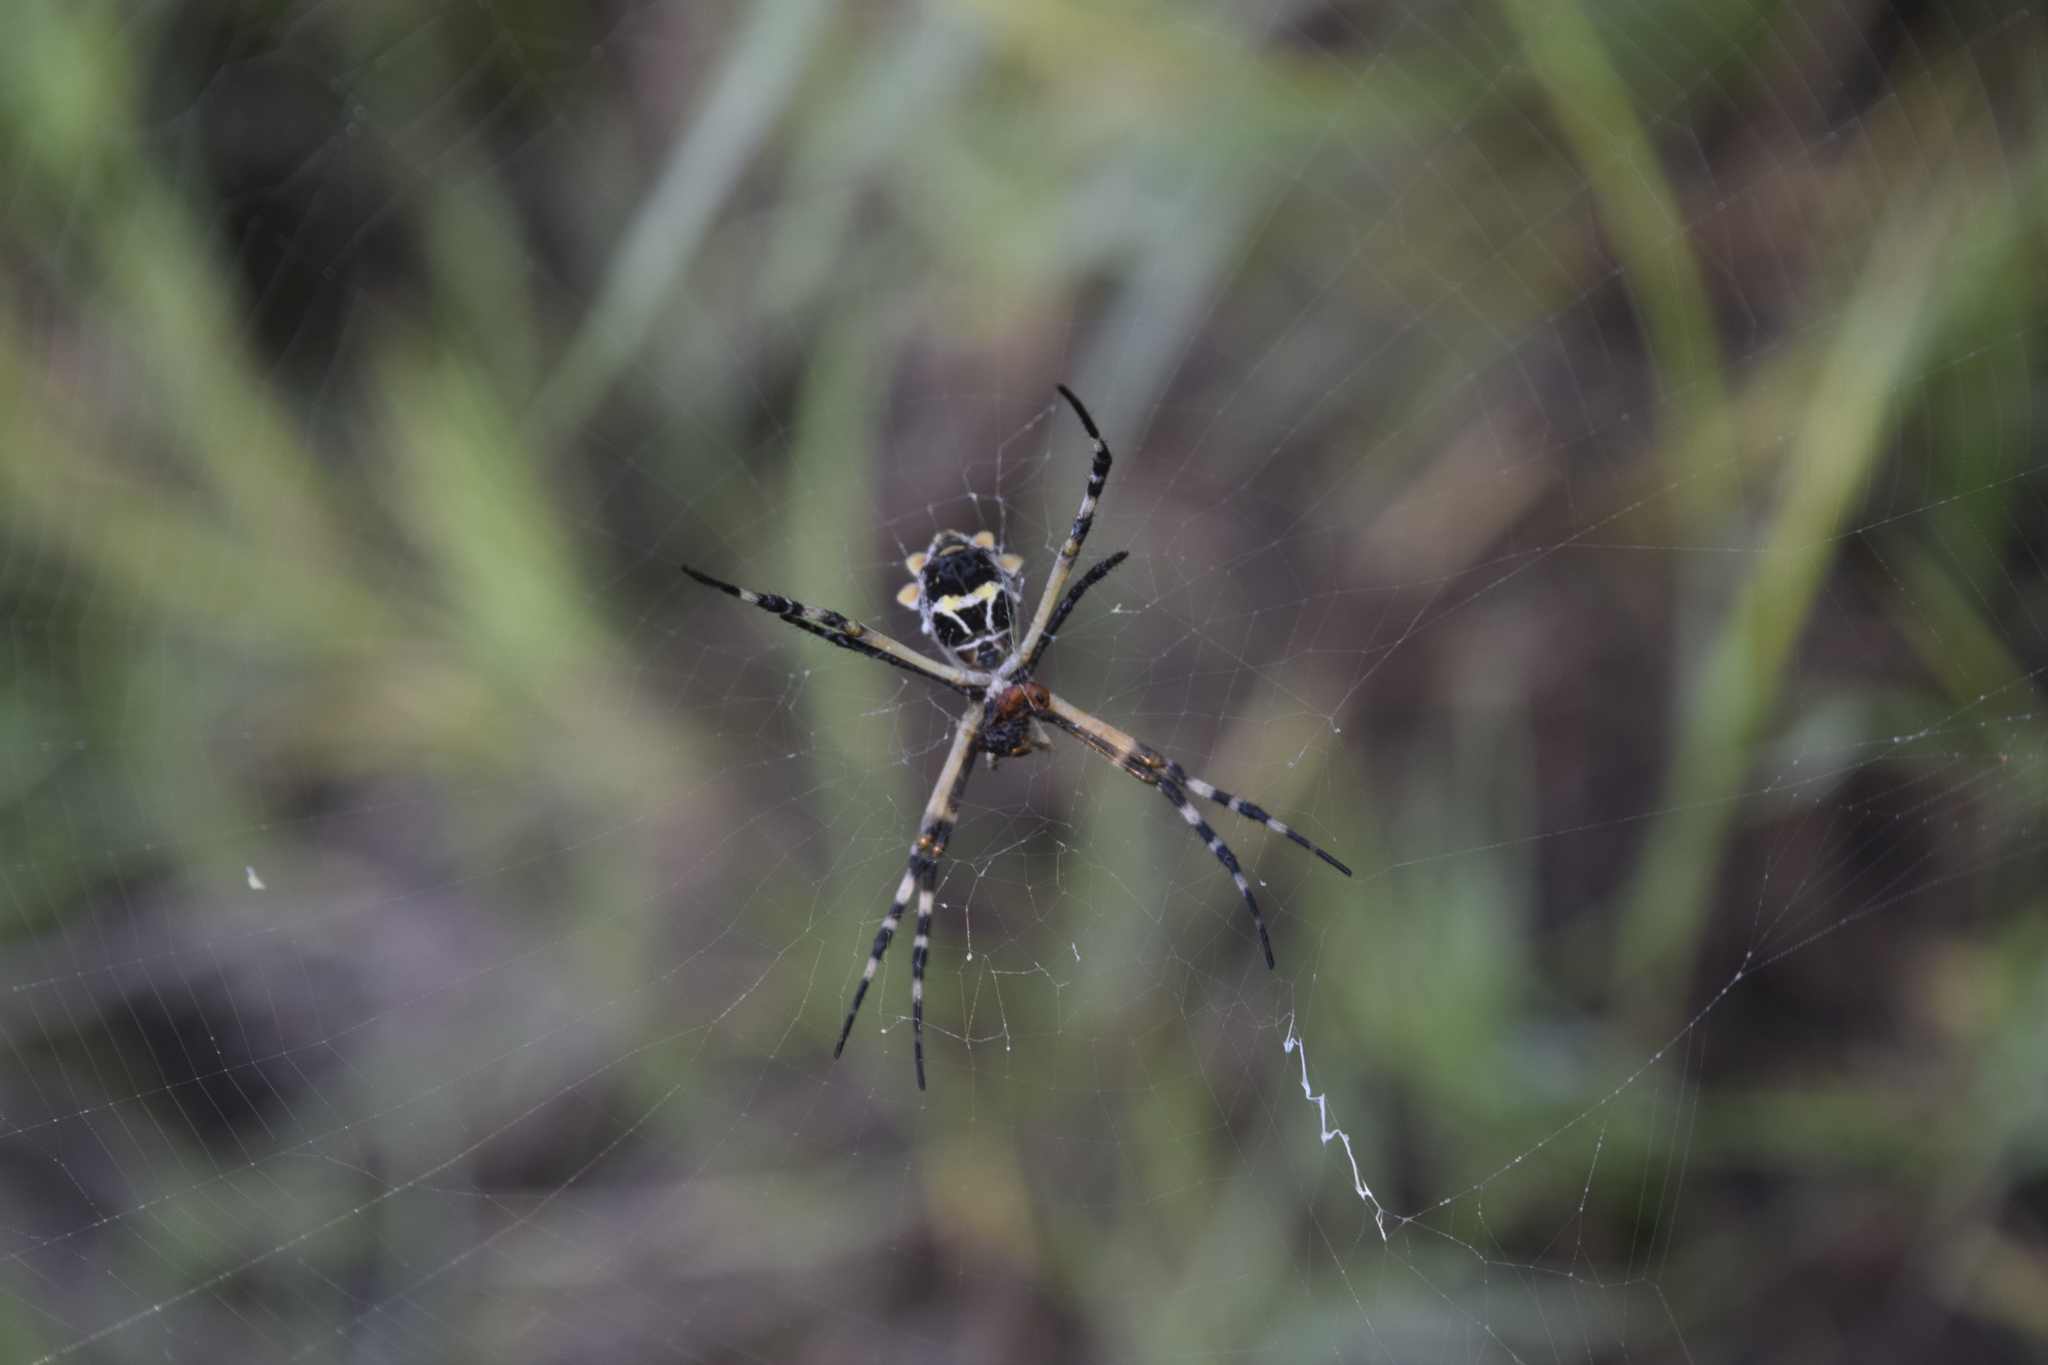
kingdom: Animalia
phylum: Arthropoda
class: Arachnida
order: Araneae
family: Araneidae
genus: Argiope
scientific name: Argiope argentata
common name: Orb weavers
